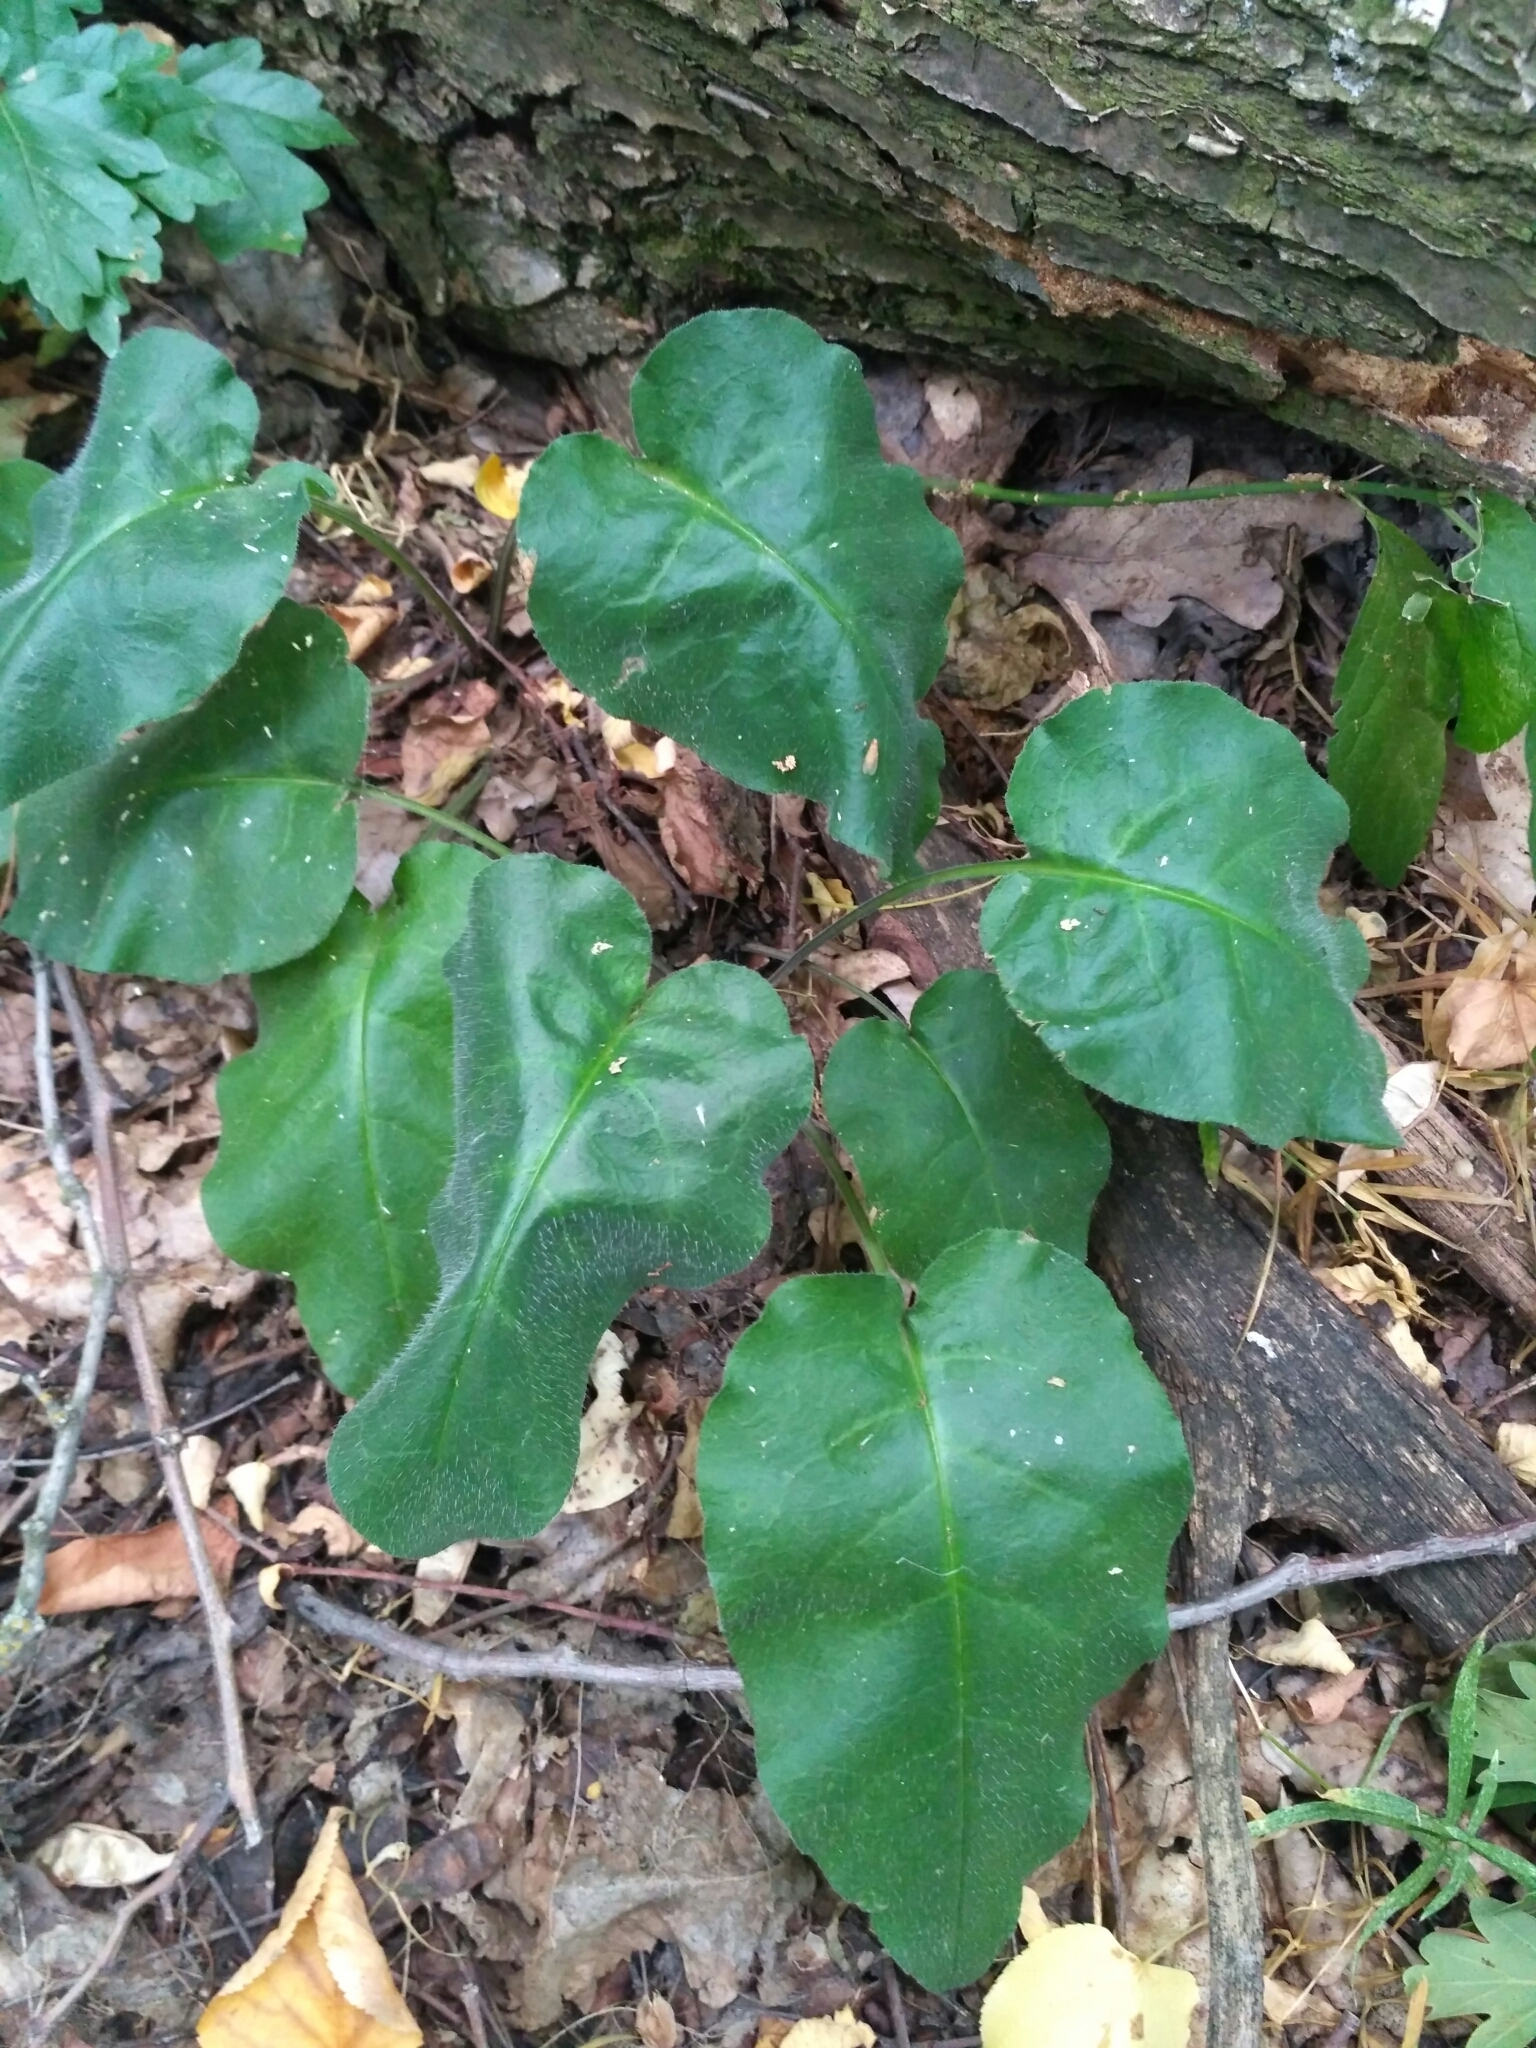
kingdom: Plantae
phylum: Tracheophyta
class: Magnoliopsida
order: Boraginales
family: Boraginaceae
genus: Pulmonaria
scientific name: Pulmonaria obscura
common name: Suffolk lungwort
